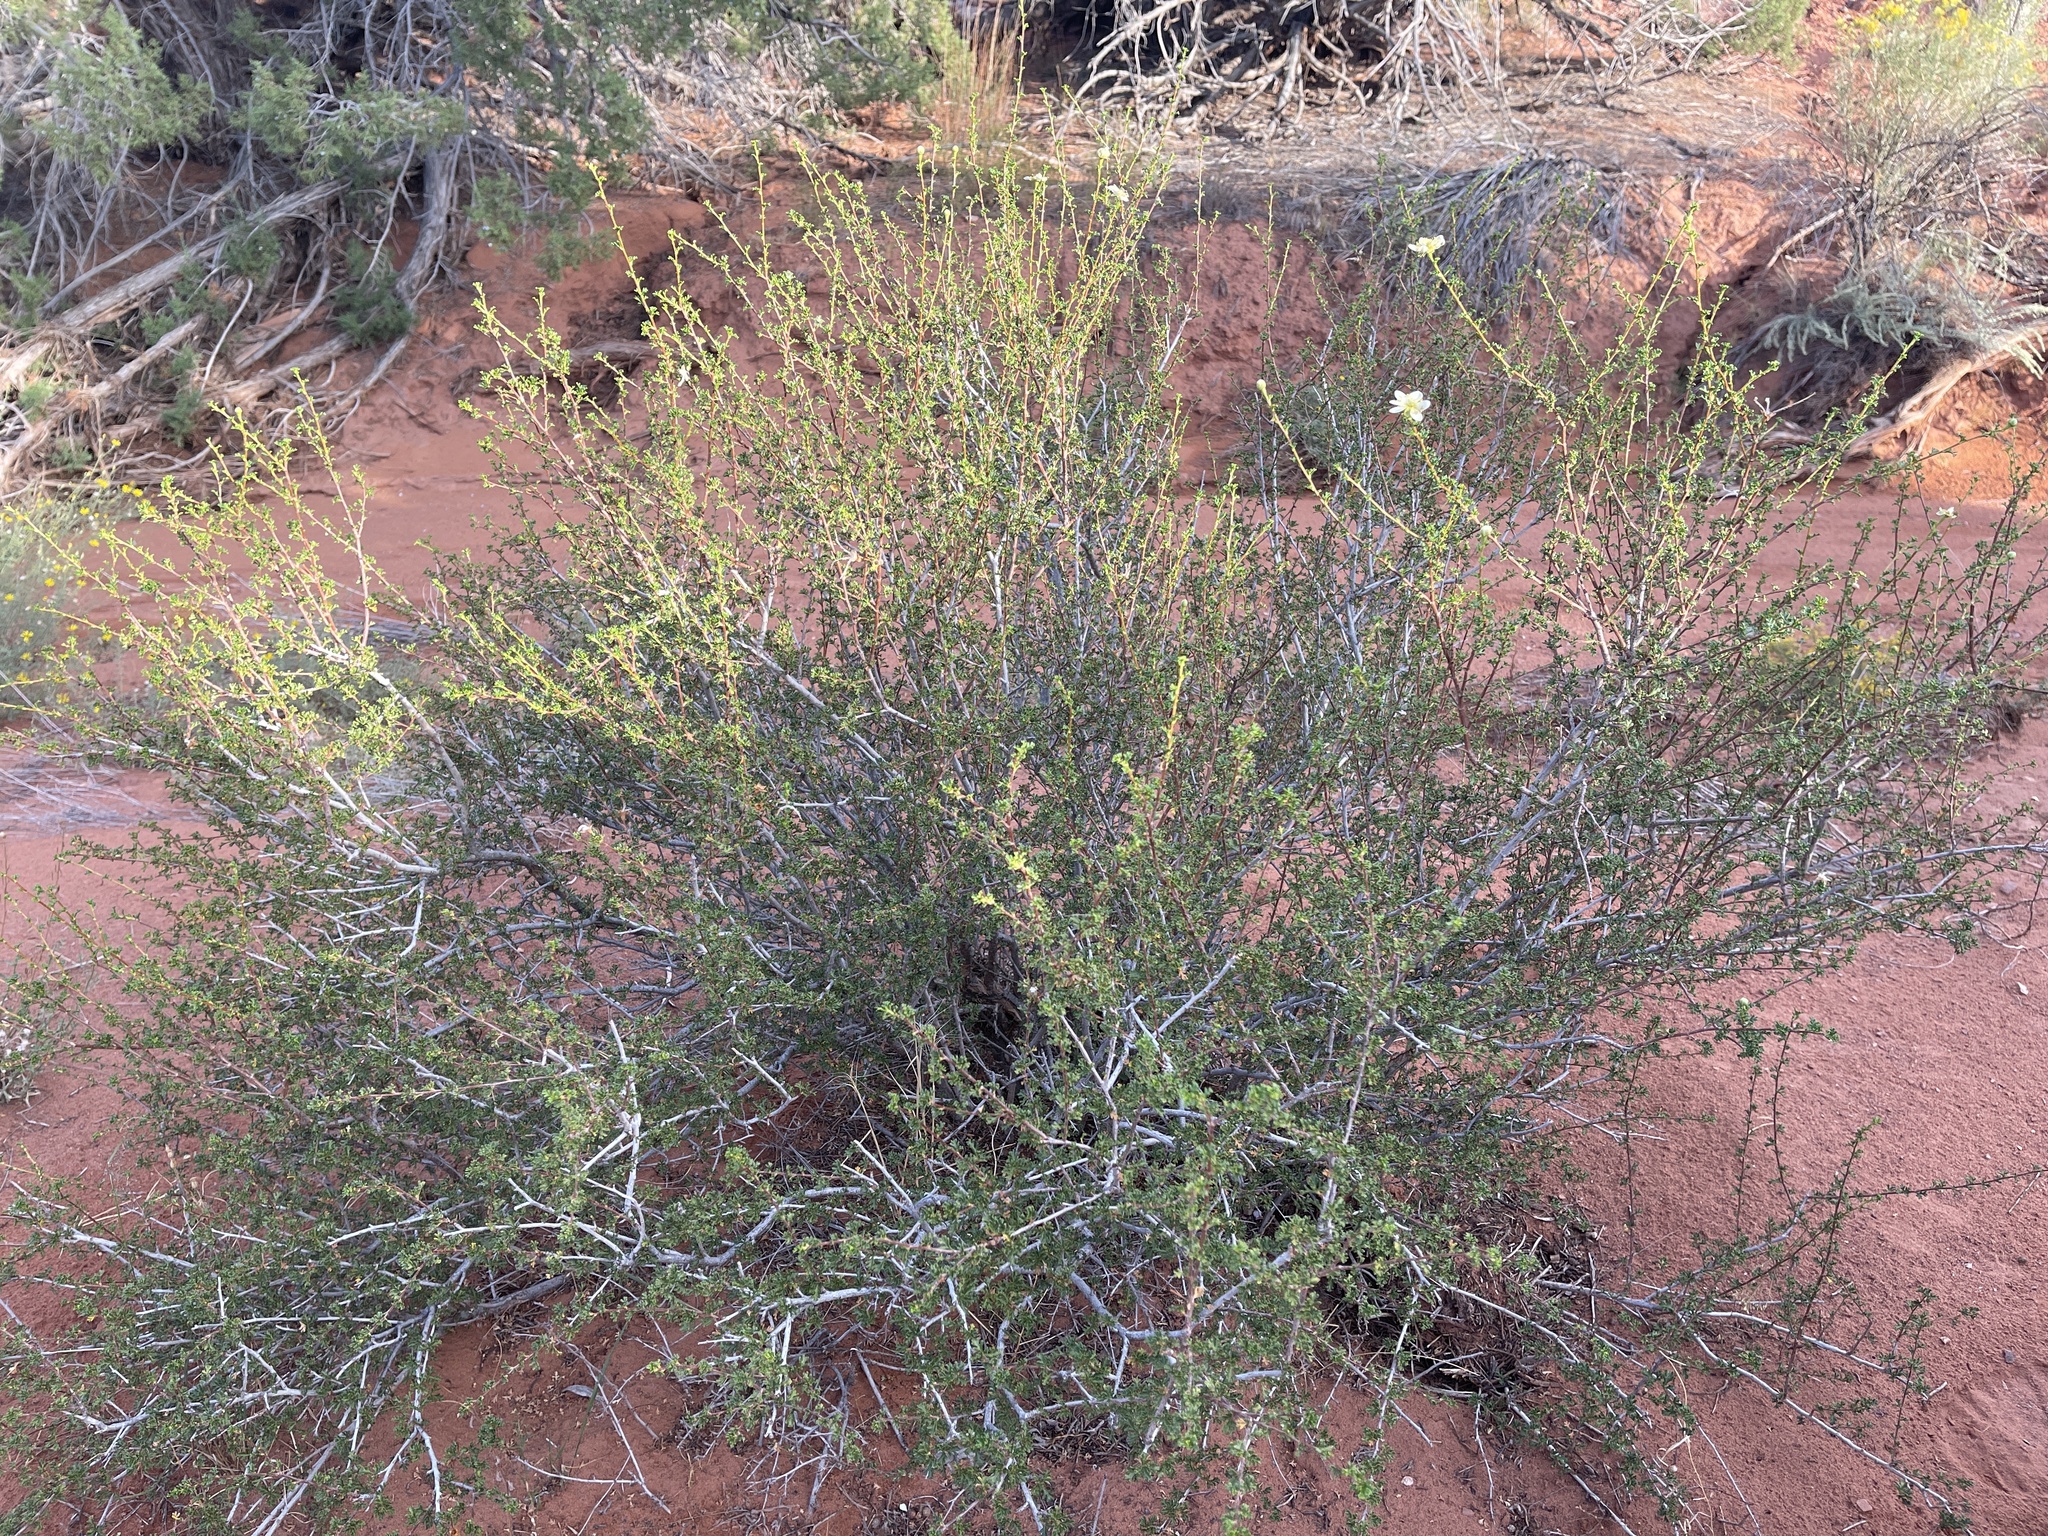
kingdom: Plantae
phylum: Tracheophyta
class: Magnoliopsida
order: Rosales
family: Rosaceae
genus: Purshia
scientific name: Purshia stansburiana
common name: Stansbury's cliffrose
